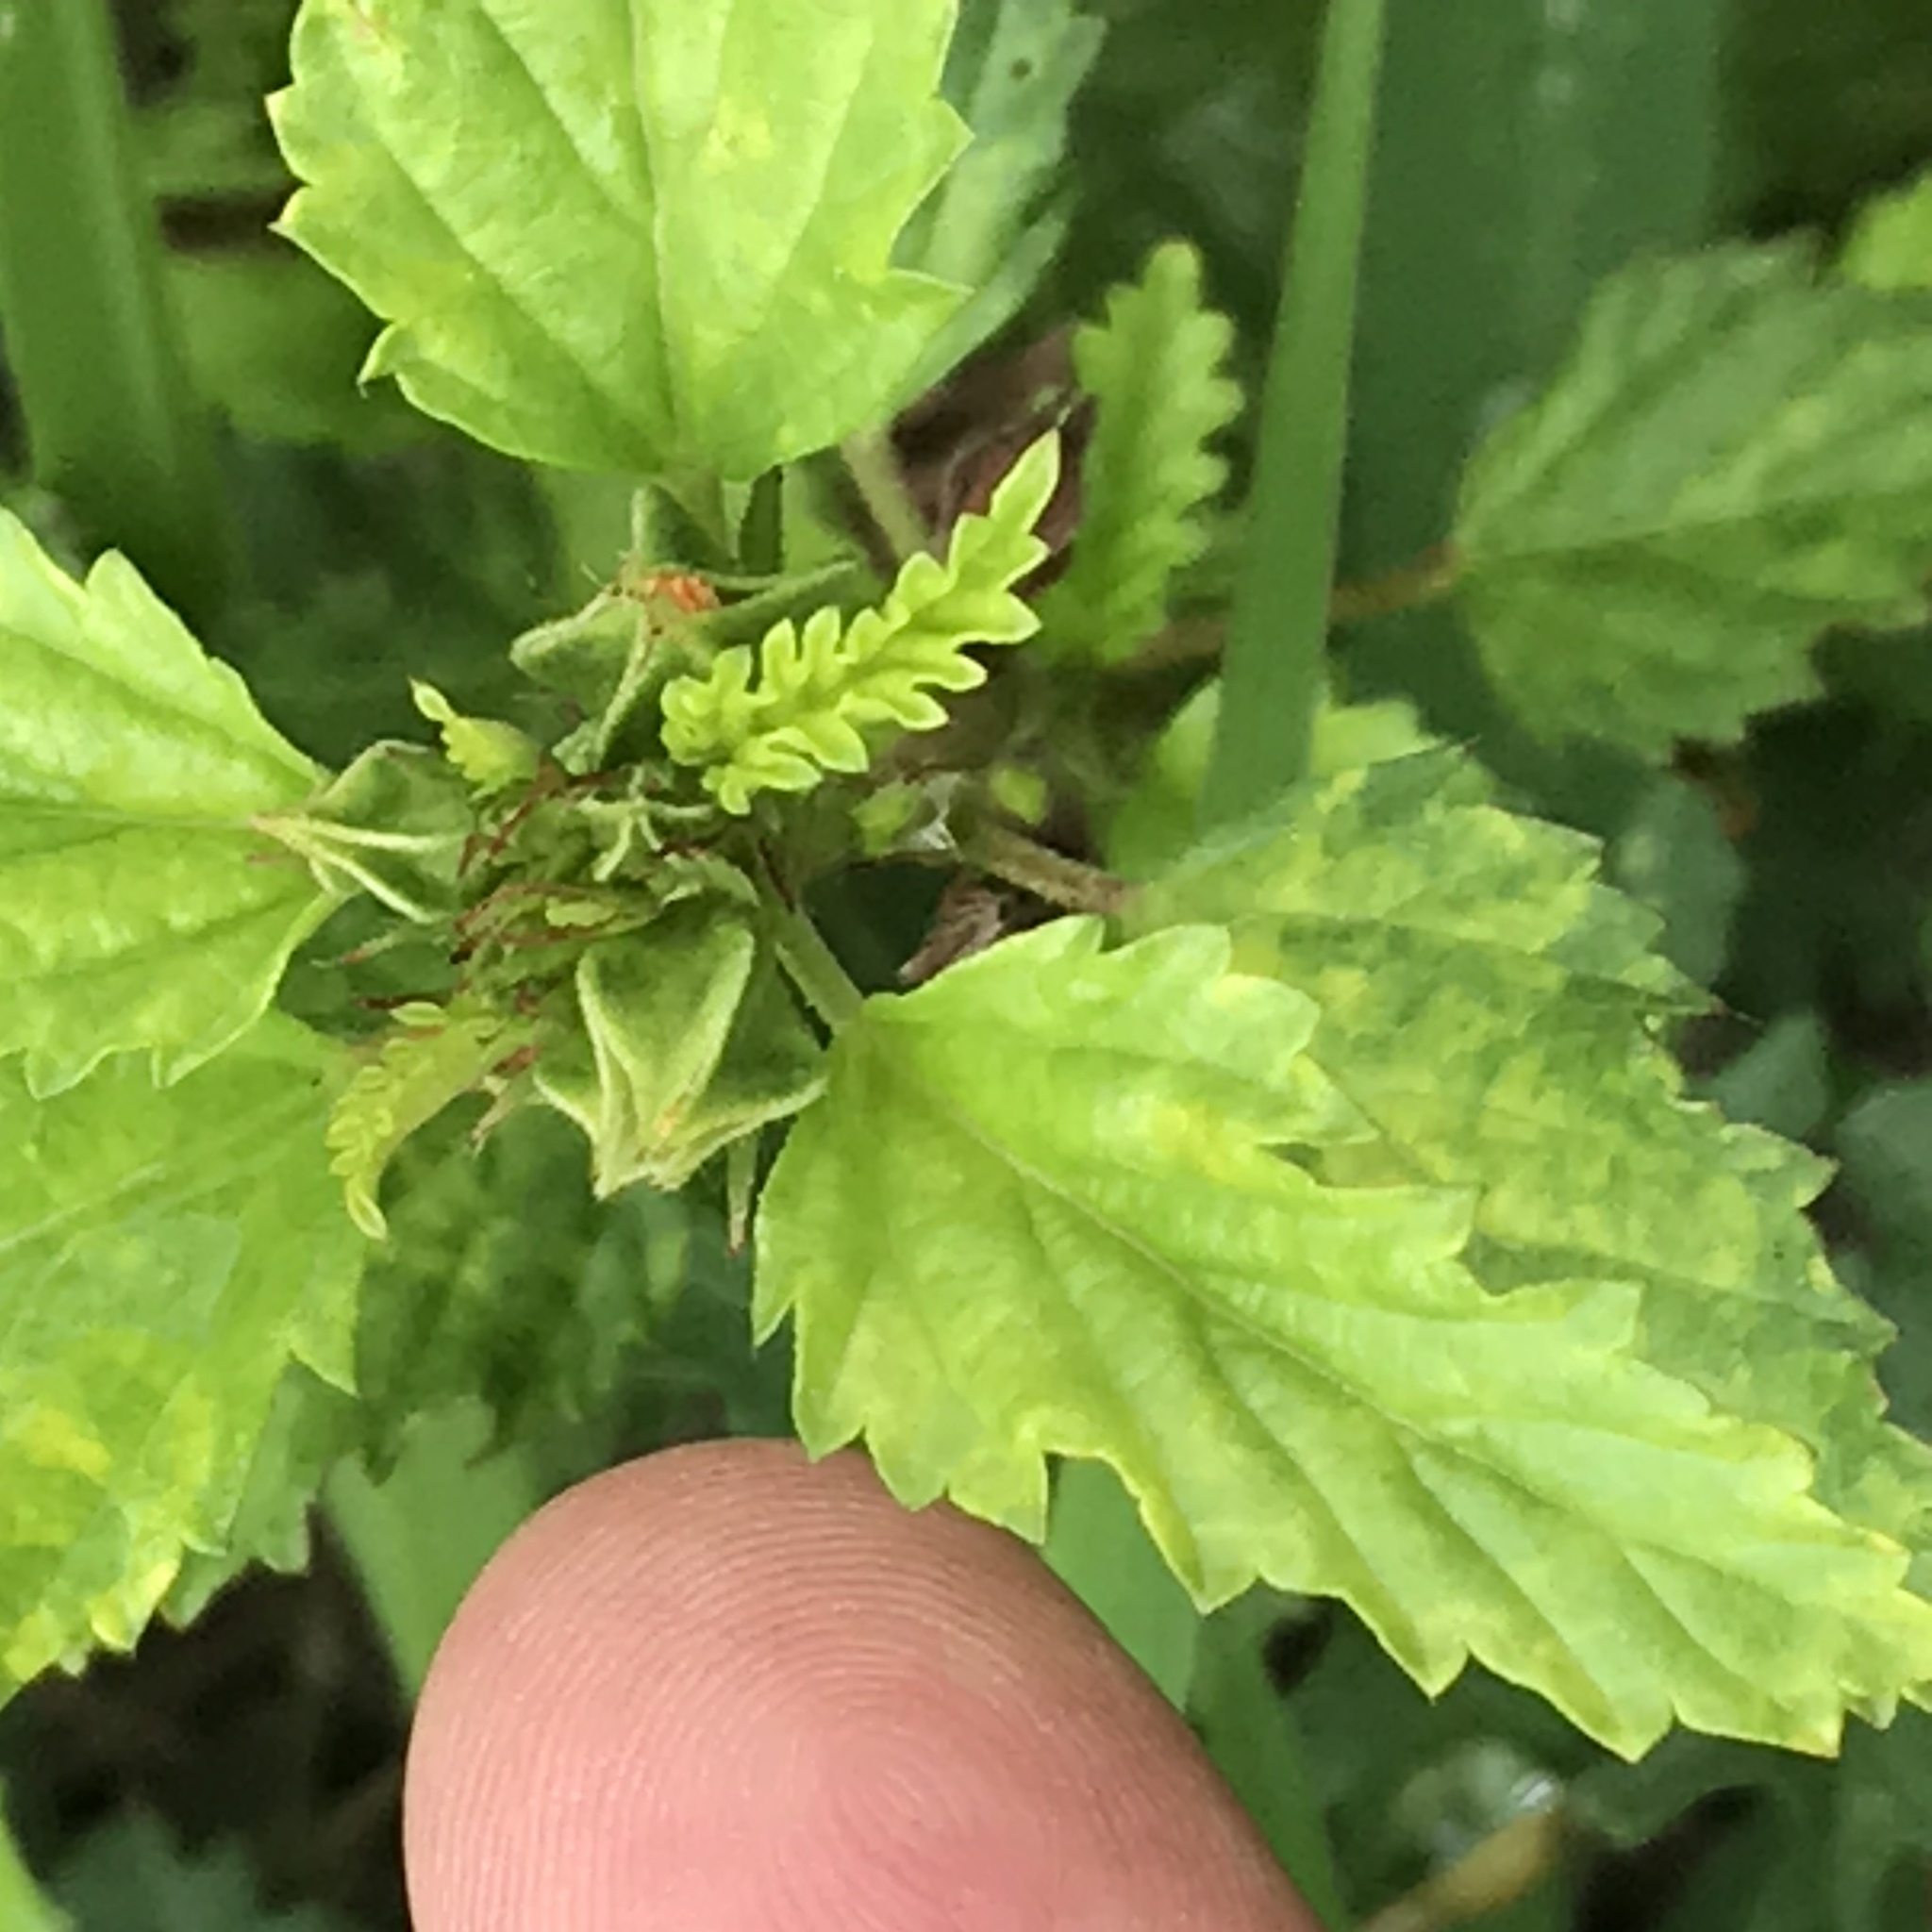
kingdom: Plantae
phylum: Tracheophyta
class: Magnoliopsida
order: Malvales
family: Malvaceae
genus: Malvastrum
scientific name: Malvastrum coromandelianum
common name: Threelobe false mallow
